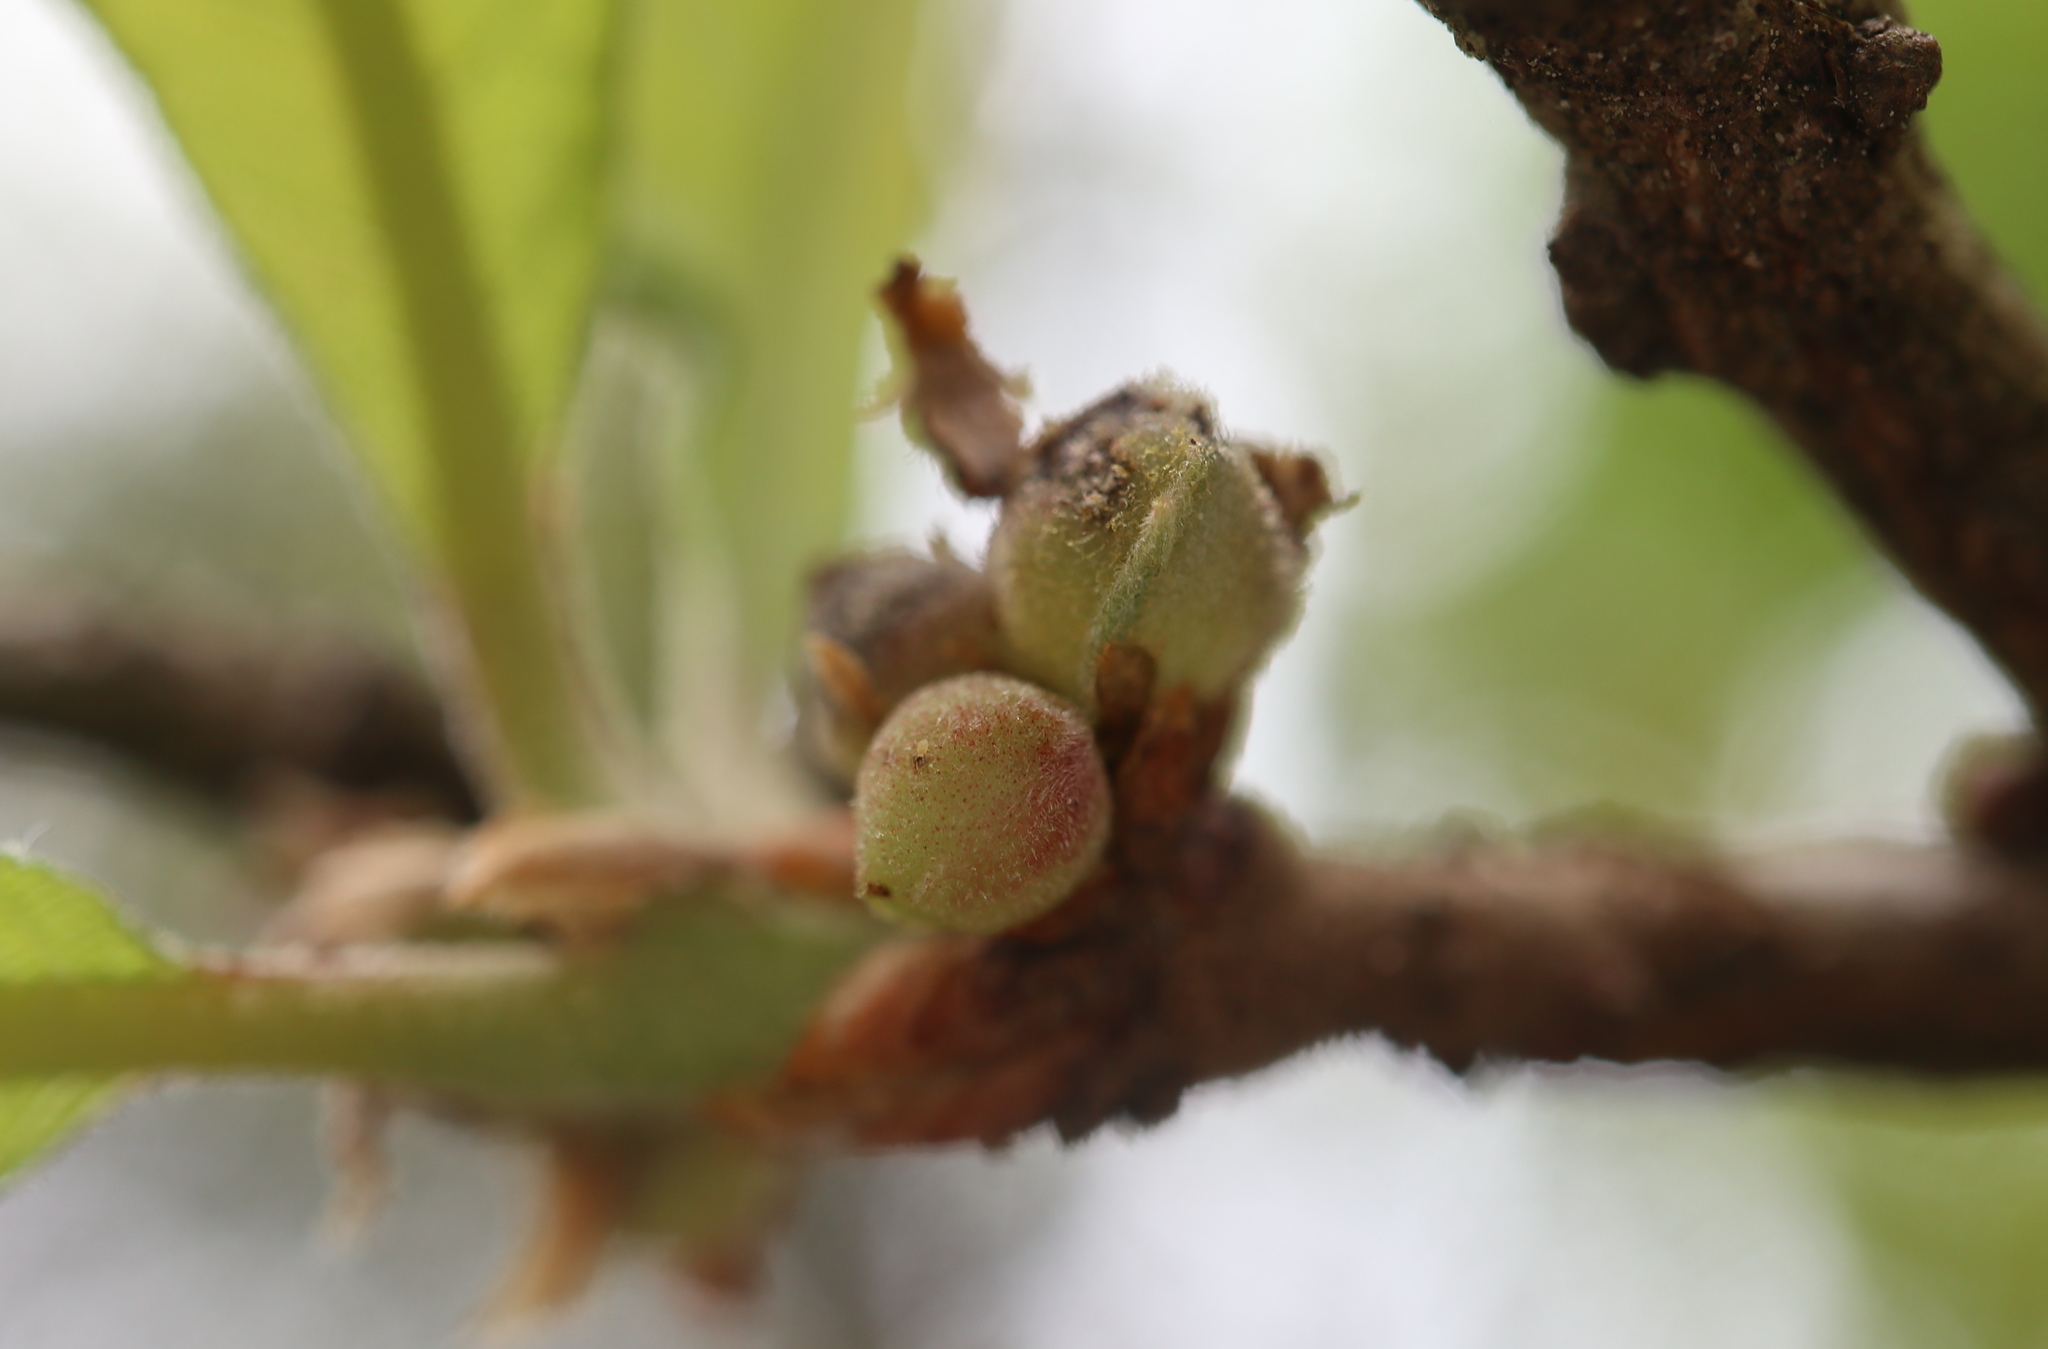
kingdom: Animalia
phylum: Arthropoda
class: Insecta
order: Hymenoptera
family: Cynipidae
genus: Andricus
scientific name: Andricus
